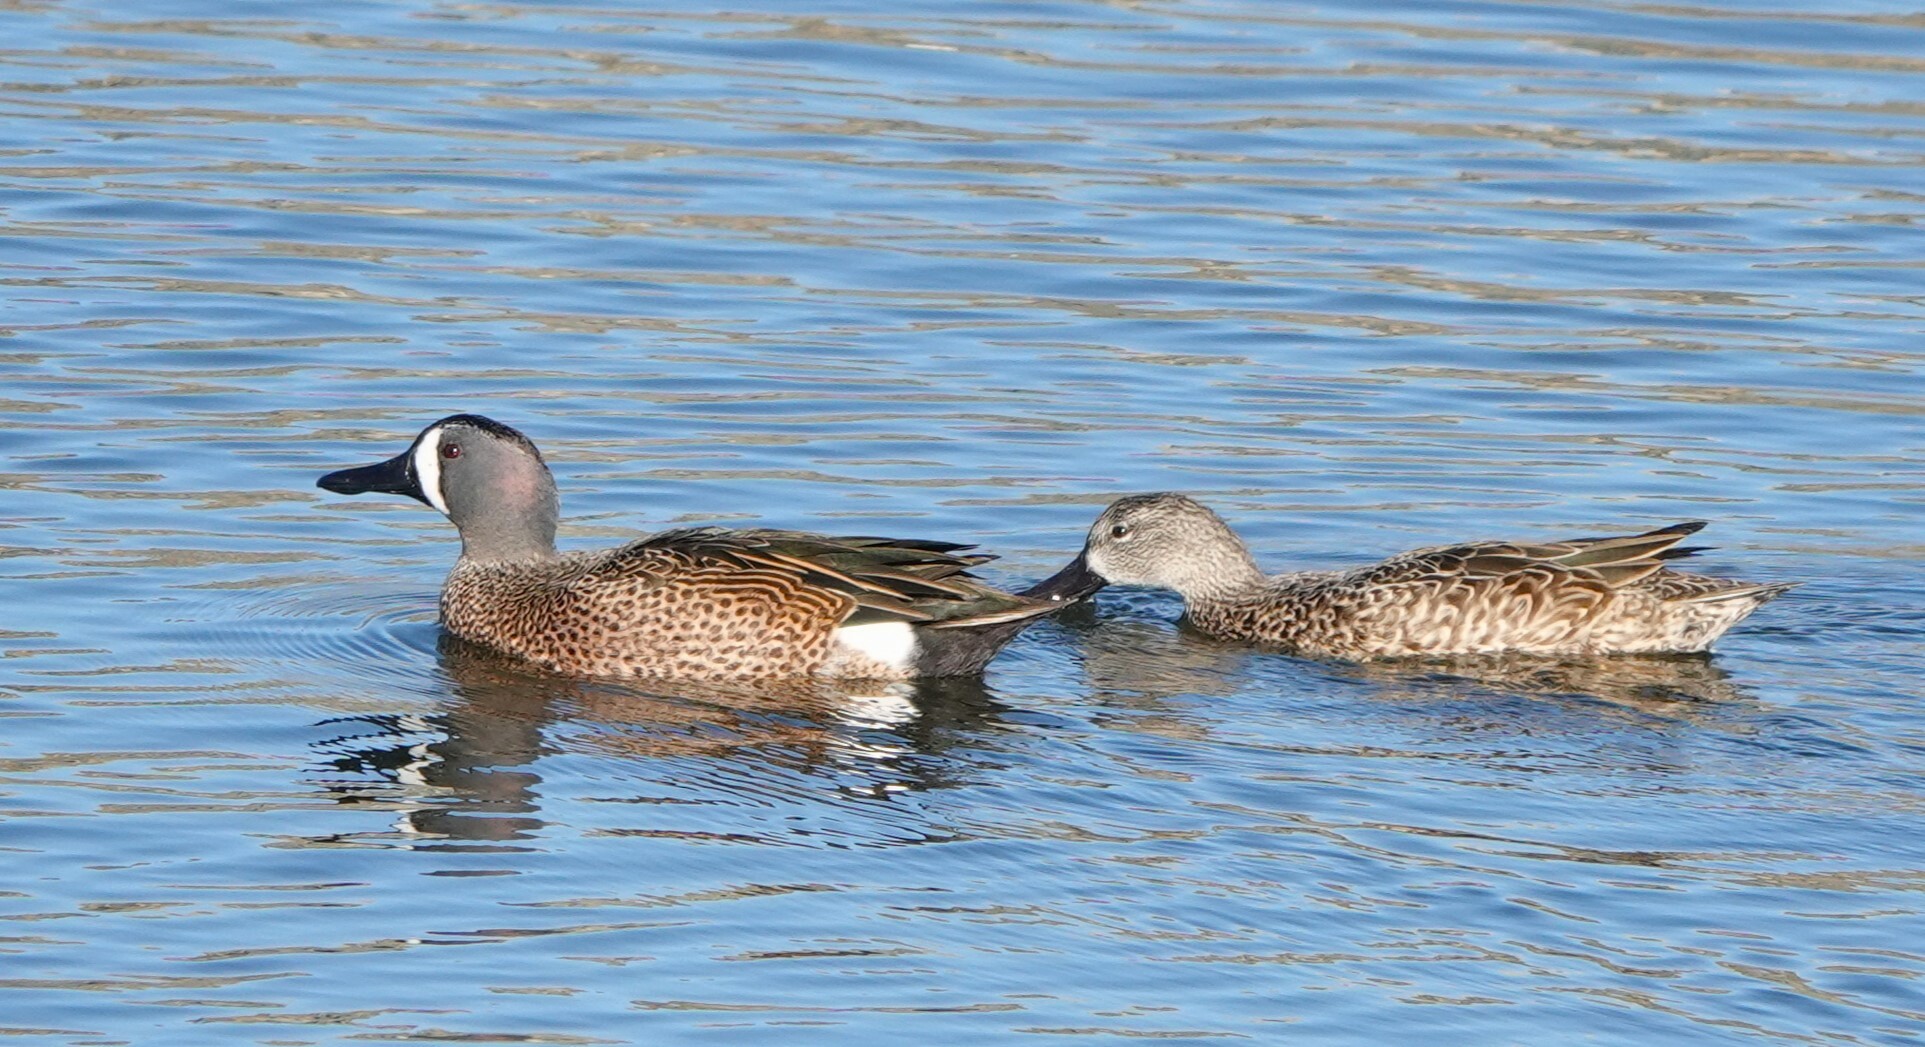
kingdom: Animalia
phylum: Chordata
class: Aves
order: Anseriformes
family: Anatidae
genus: Spatula
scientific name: Spatula discors
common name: Blue-winged teal
